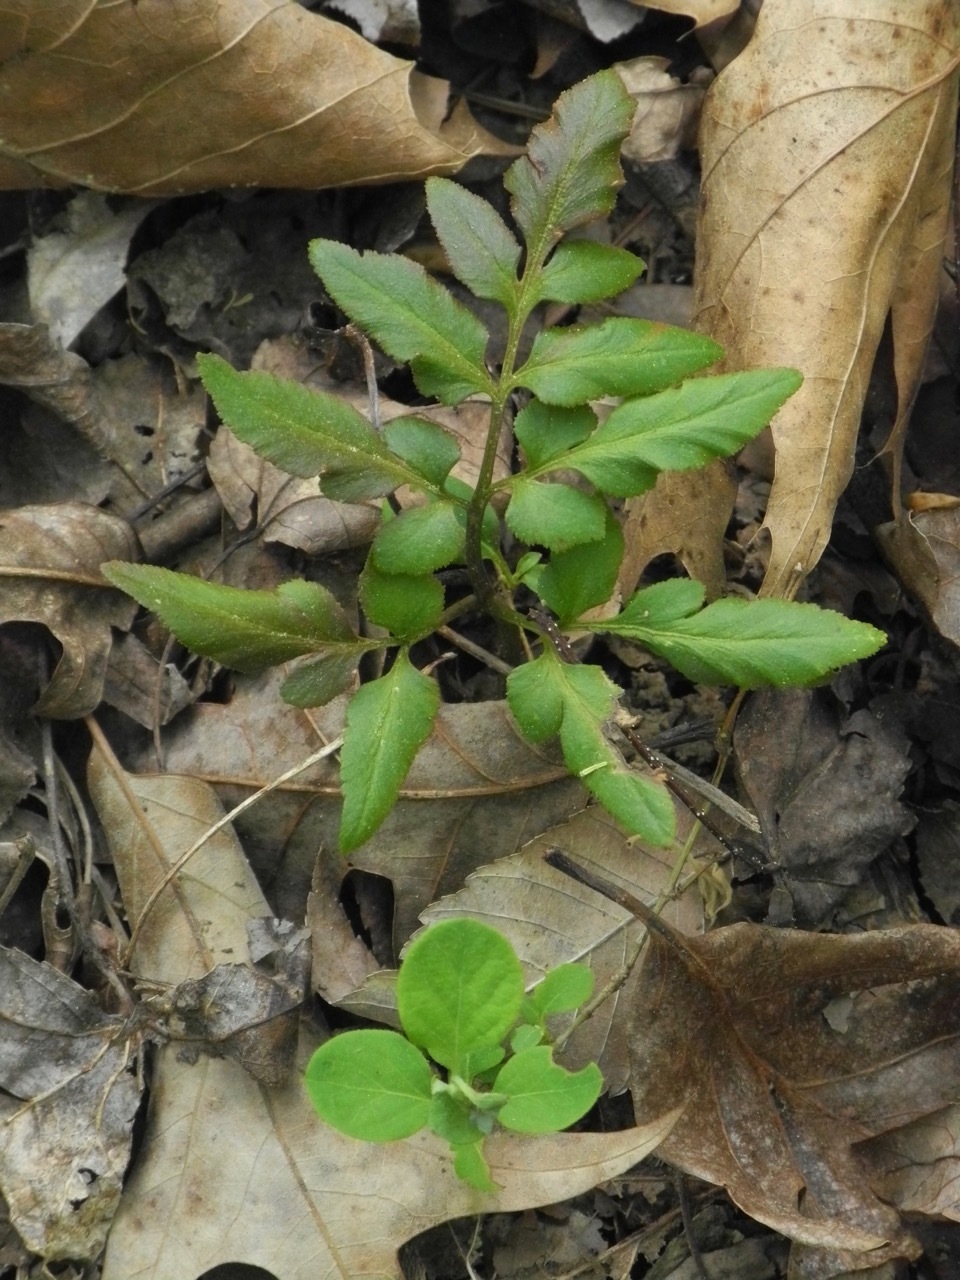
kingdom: Plantae
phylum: Tracheophyta
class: Polypodiopsida
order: Ophioglossales
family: Ophioglossaceae
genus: Sceptridium
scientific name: Sceptridium biternatum
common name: Sparse-lobed grapefern
